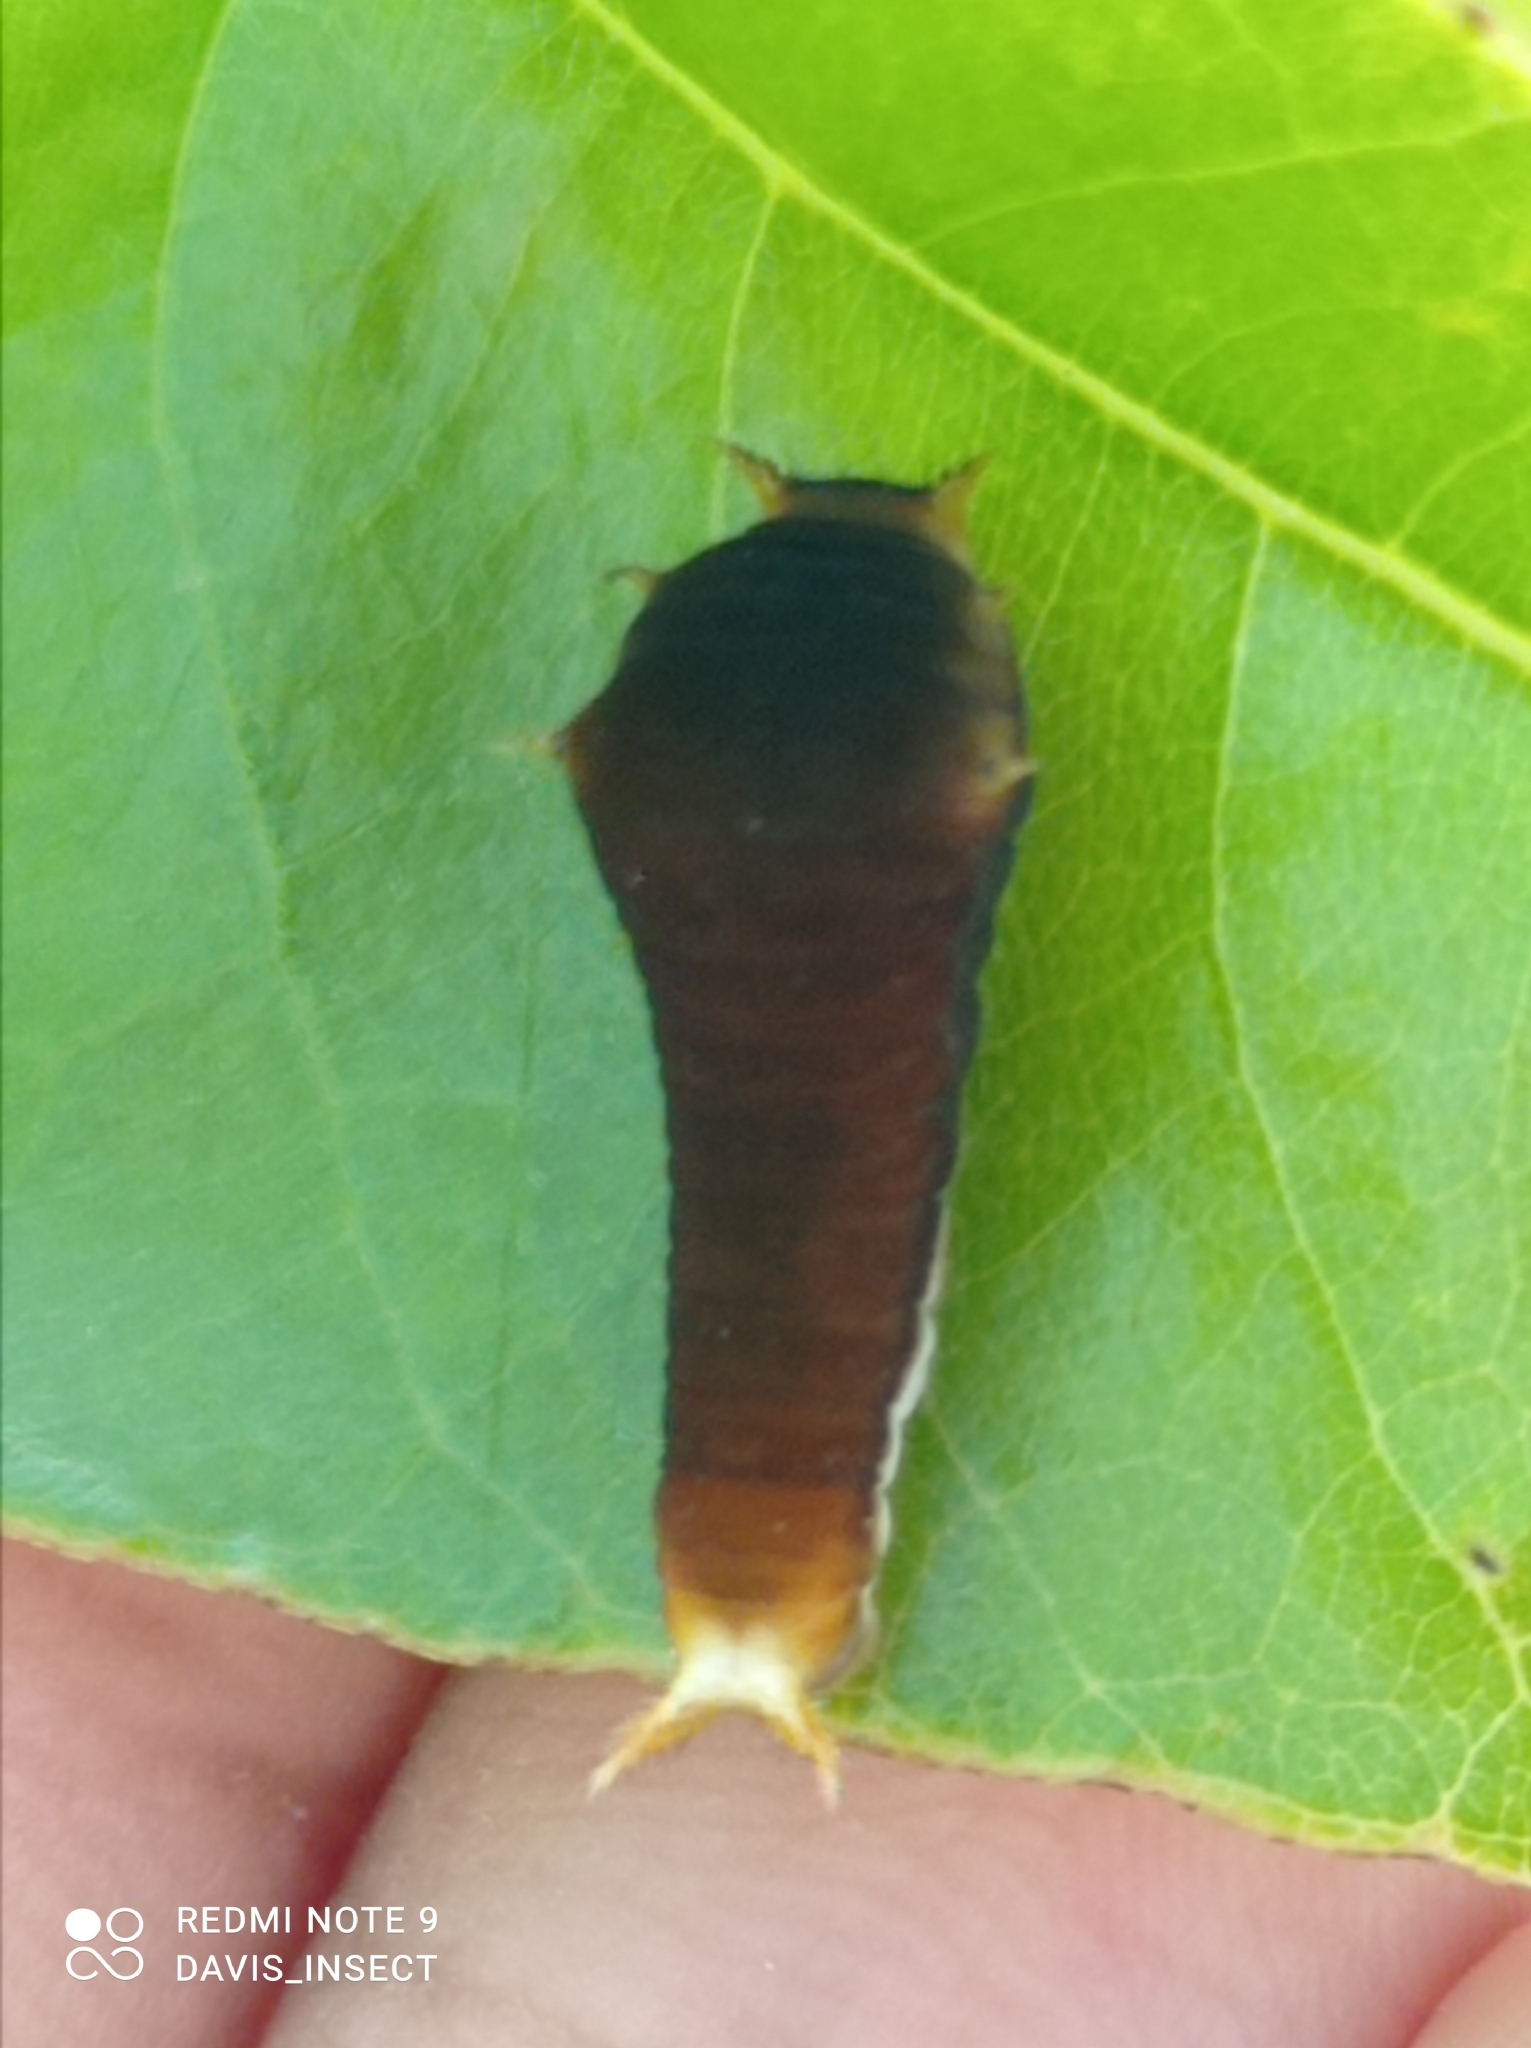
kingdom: Animalia
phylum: Arthropoda
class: Insecta
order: Lepidoptera
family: Papilionidae
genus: Graphium
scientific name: Graphium
